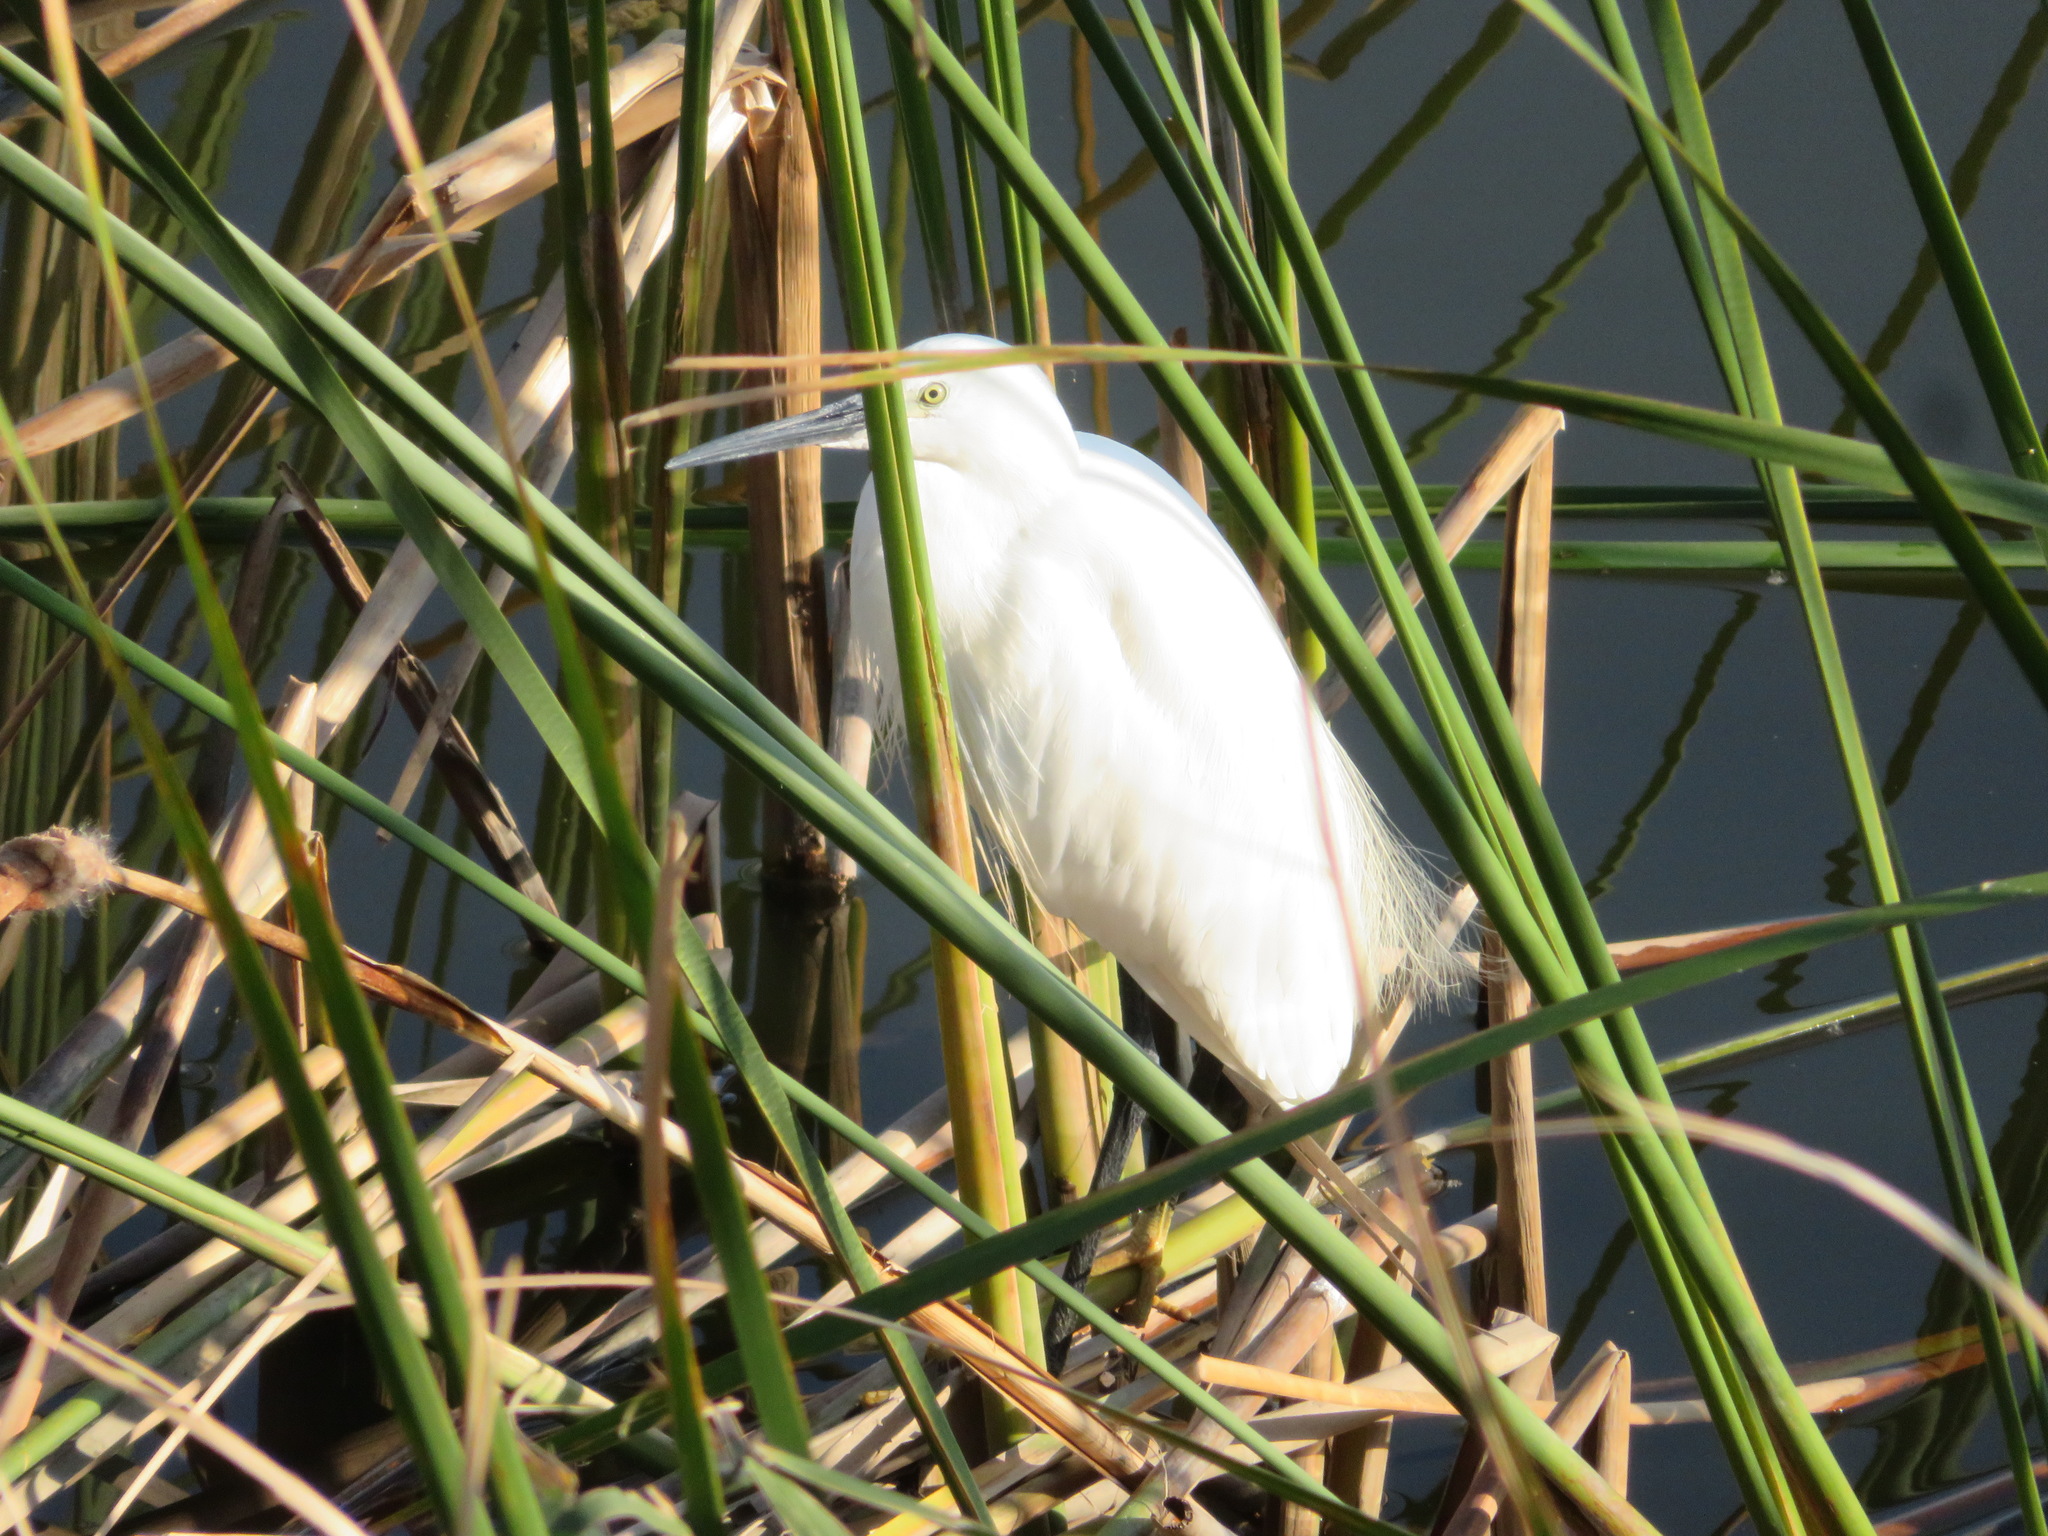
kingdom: Animalia
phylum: Chordata
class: Aves
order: Pelecaniformes
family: Ardeidae
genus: Egretta
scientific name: Egretta garzetta
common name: Little egret
